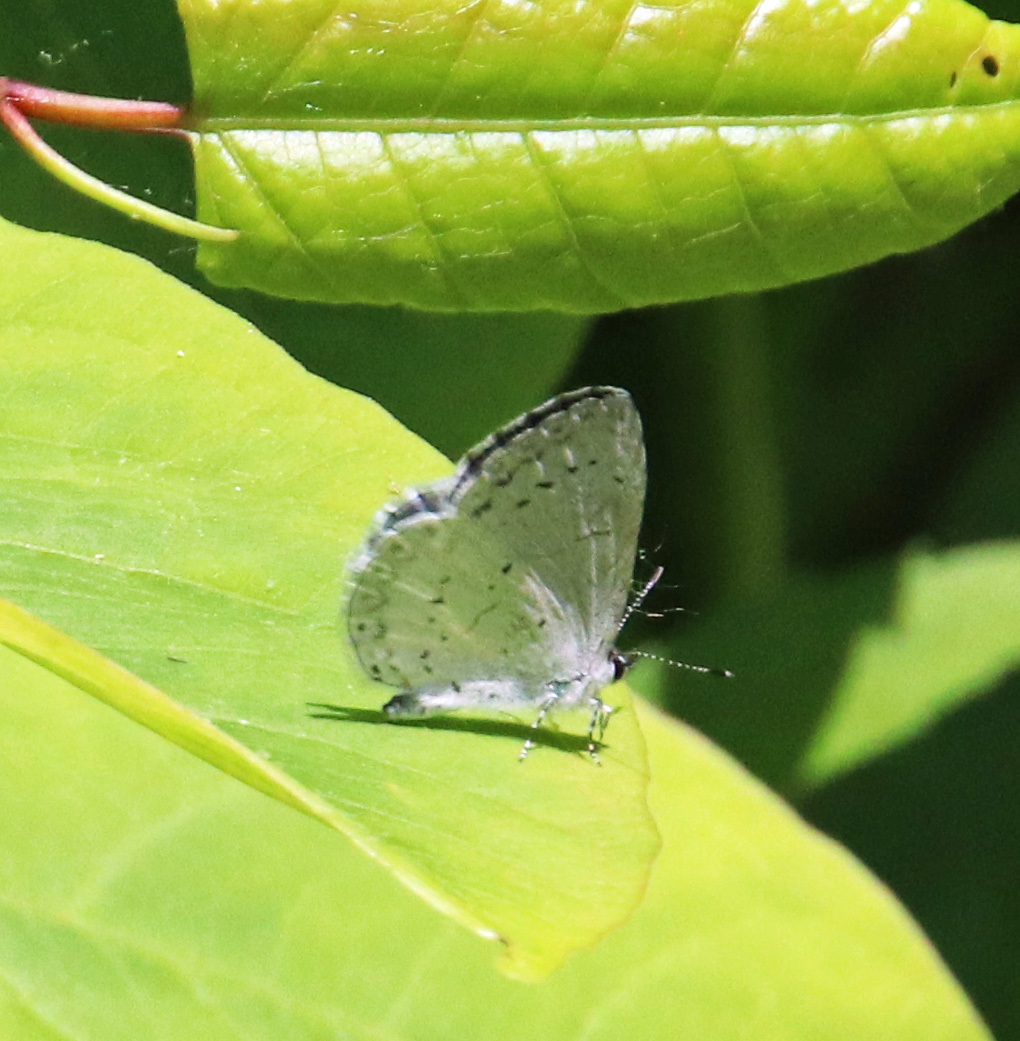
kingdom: Animalia
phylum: Arthropoda
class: Insecta
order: Lepidoptera
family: Lycaenidae
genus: Cyaniris
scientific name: Cyaniris neglecta
